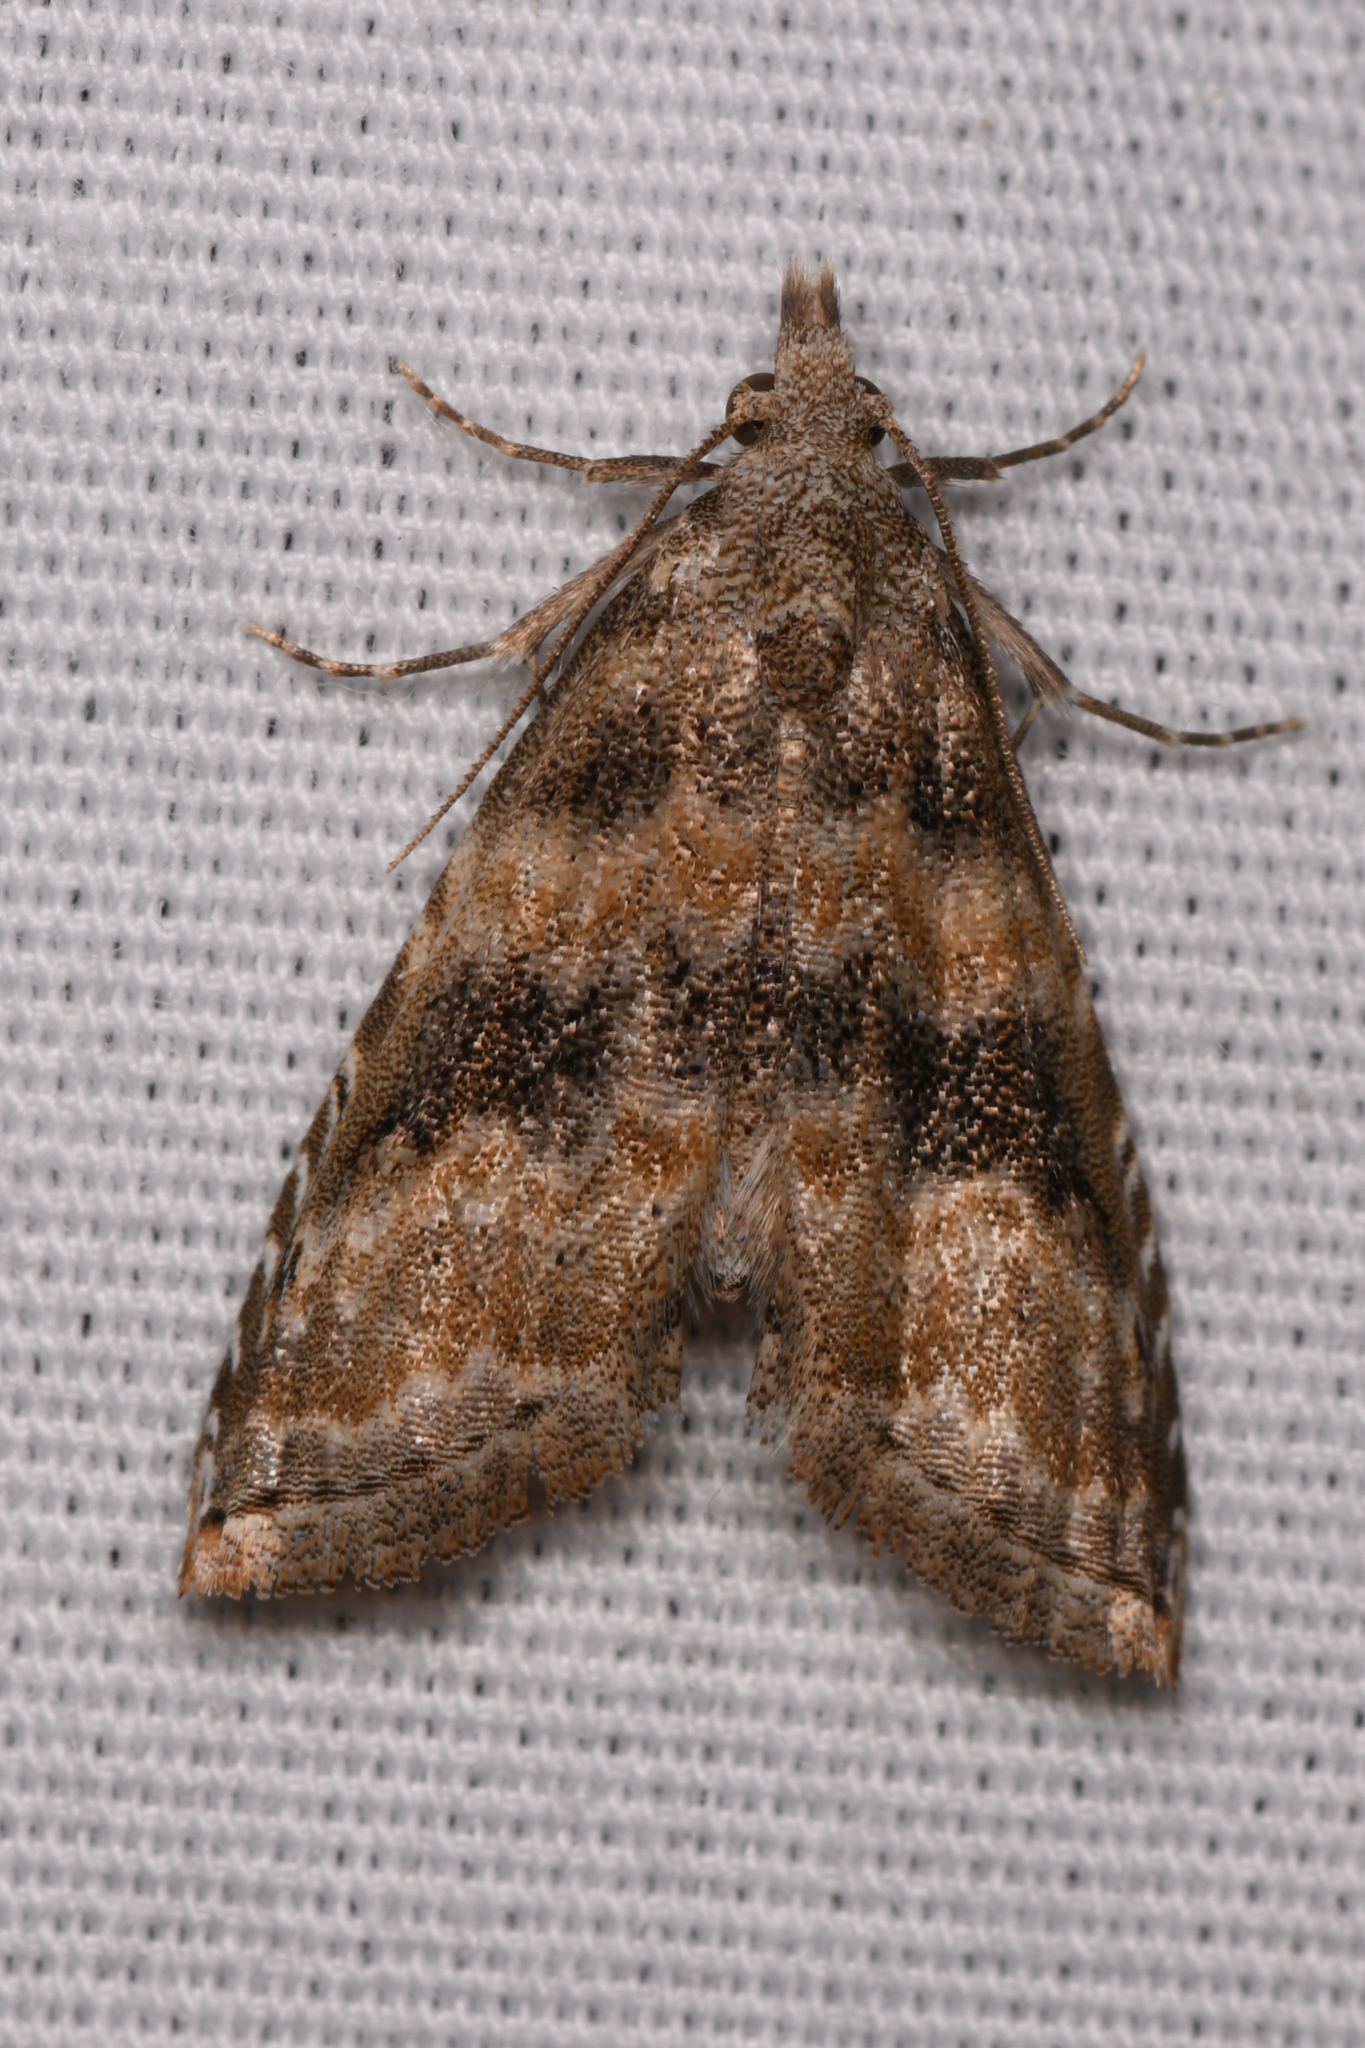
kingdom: Animalia
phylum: Arthropoda
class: Insecta
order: Lepidoptera
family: Noctuidae
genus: Phobolosia
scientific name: Phobolosia anfracta
